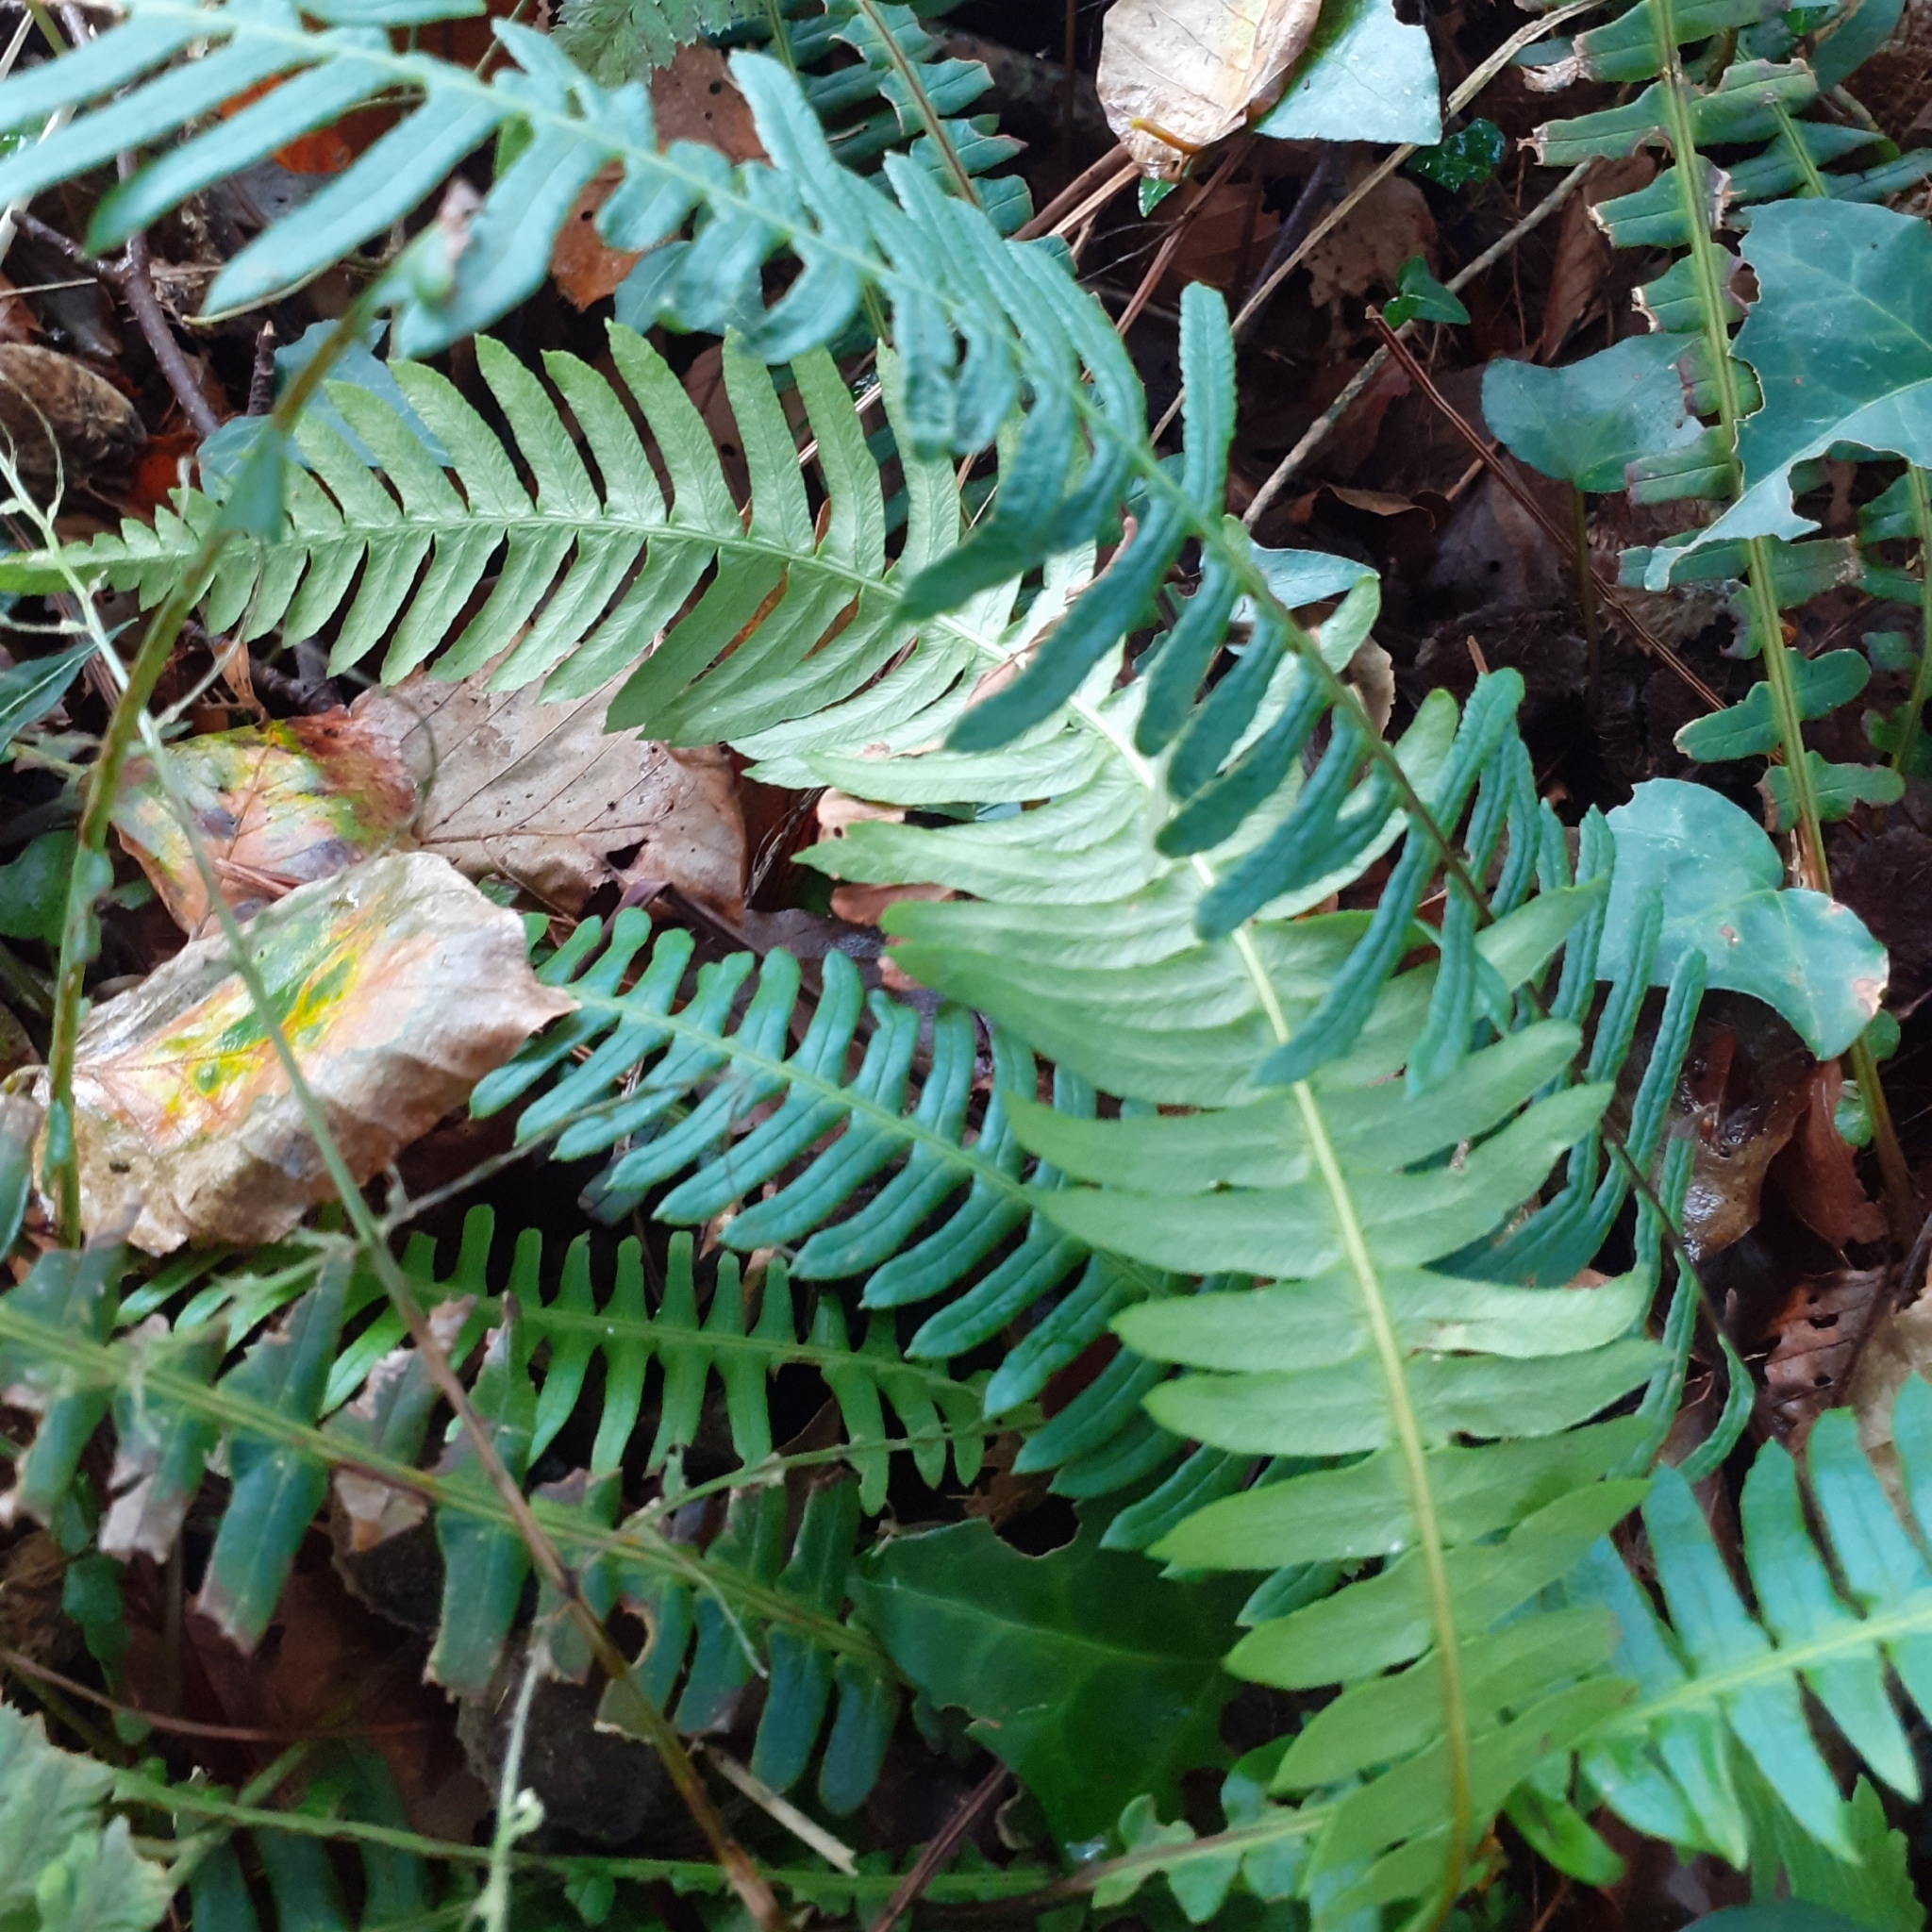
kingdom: Plantae
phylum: Tracheophyta
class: Polypodiopsida
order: Polypodiales
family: Blechnaceae
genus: Struthiopteris
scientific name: Struthiopteris spicant
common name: Deer fern
